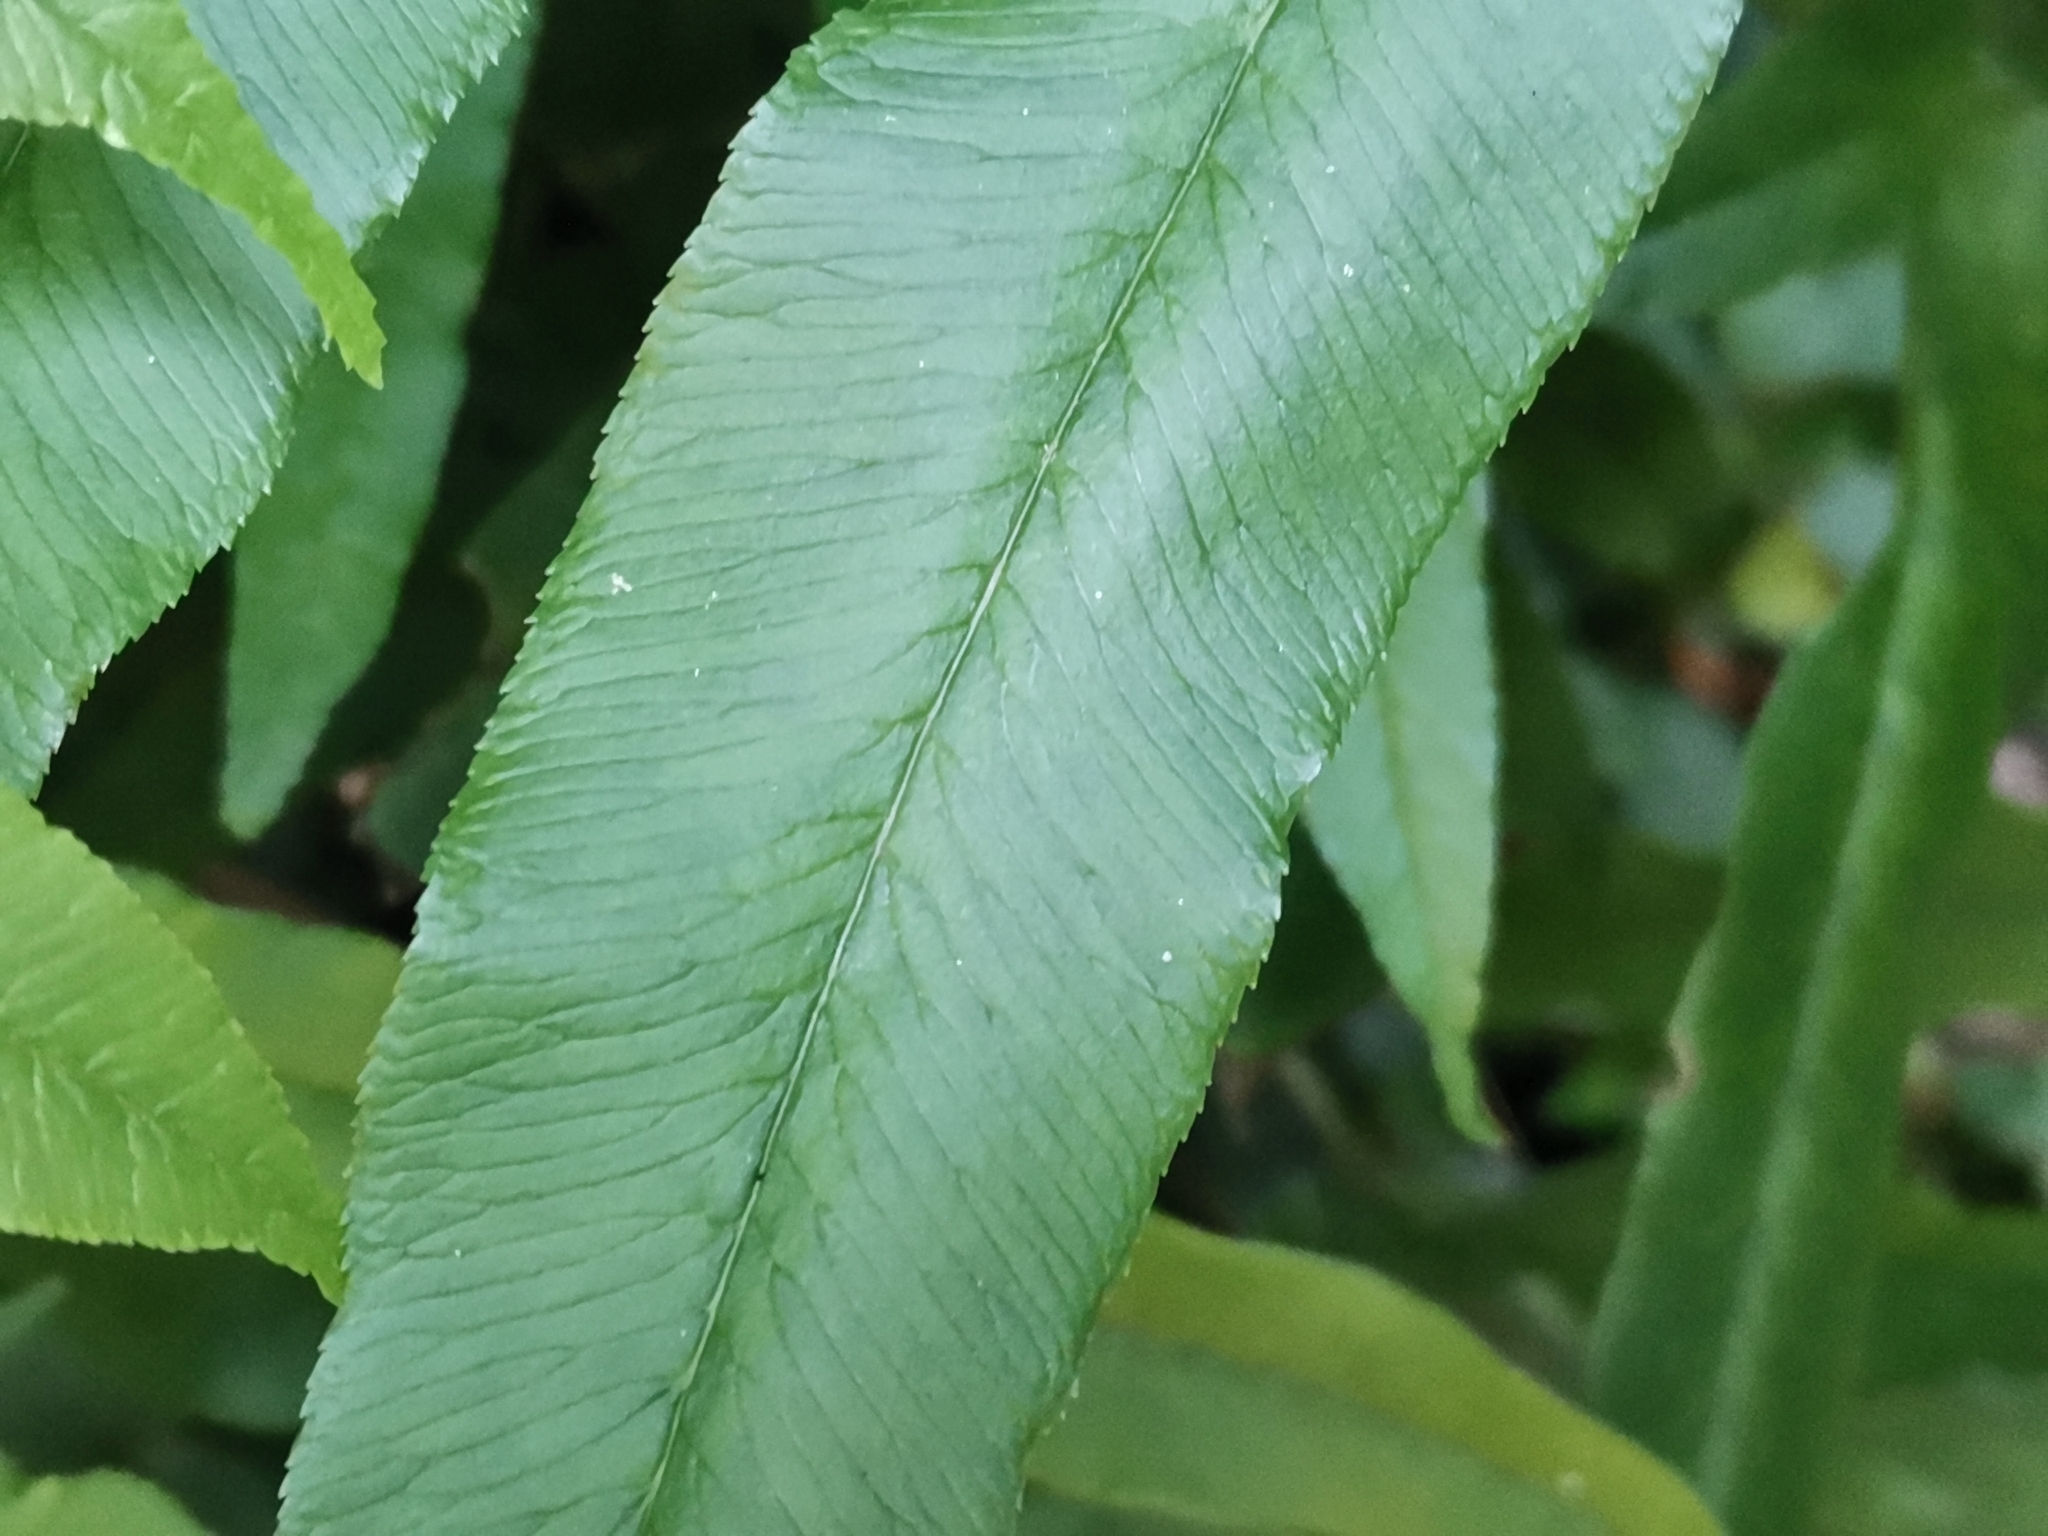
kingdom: Plantae
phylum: Tracheophyta
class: Polypodiopsida
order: Polypodiales
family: Pteridaceae
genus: Coniogramme
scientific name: Coniogramme japonica
